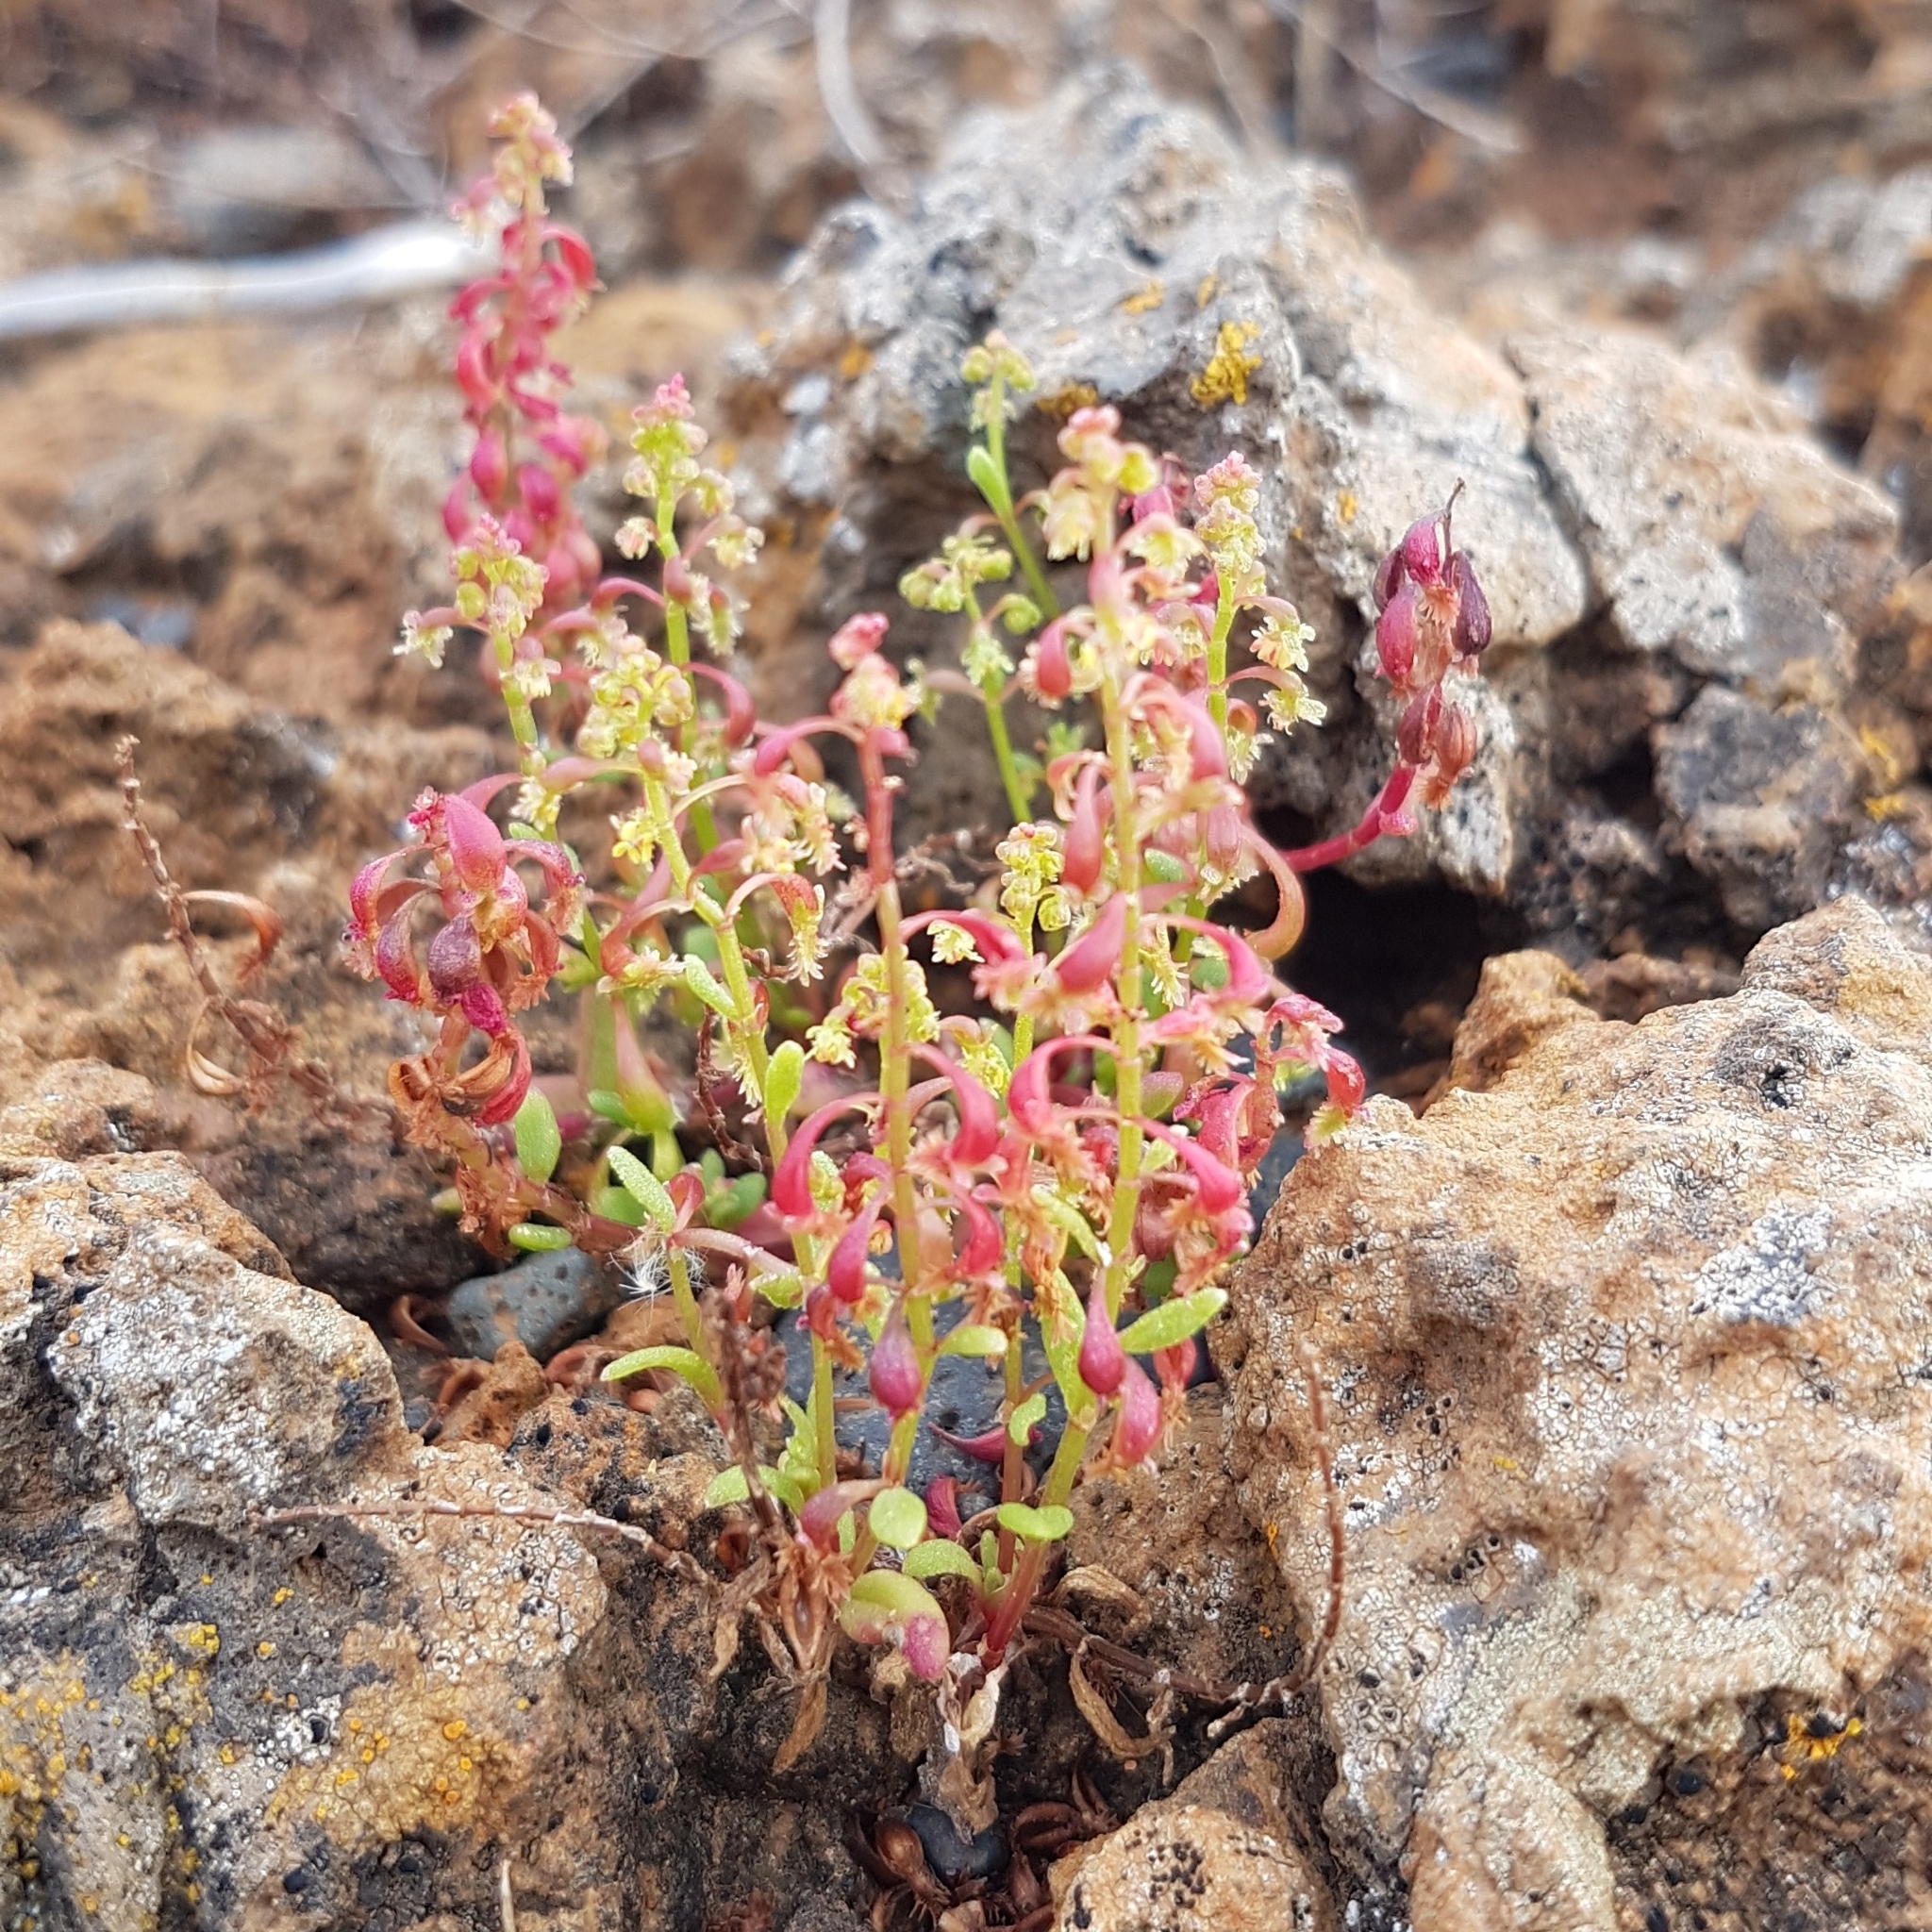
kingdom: Plantae
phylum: Tracheophyta
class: Magnoliopsida
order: Caryophyllales
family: Polygonaceae
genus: Rumex
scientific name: Rumex bucephalophorus
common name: Red dock
